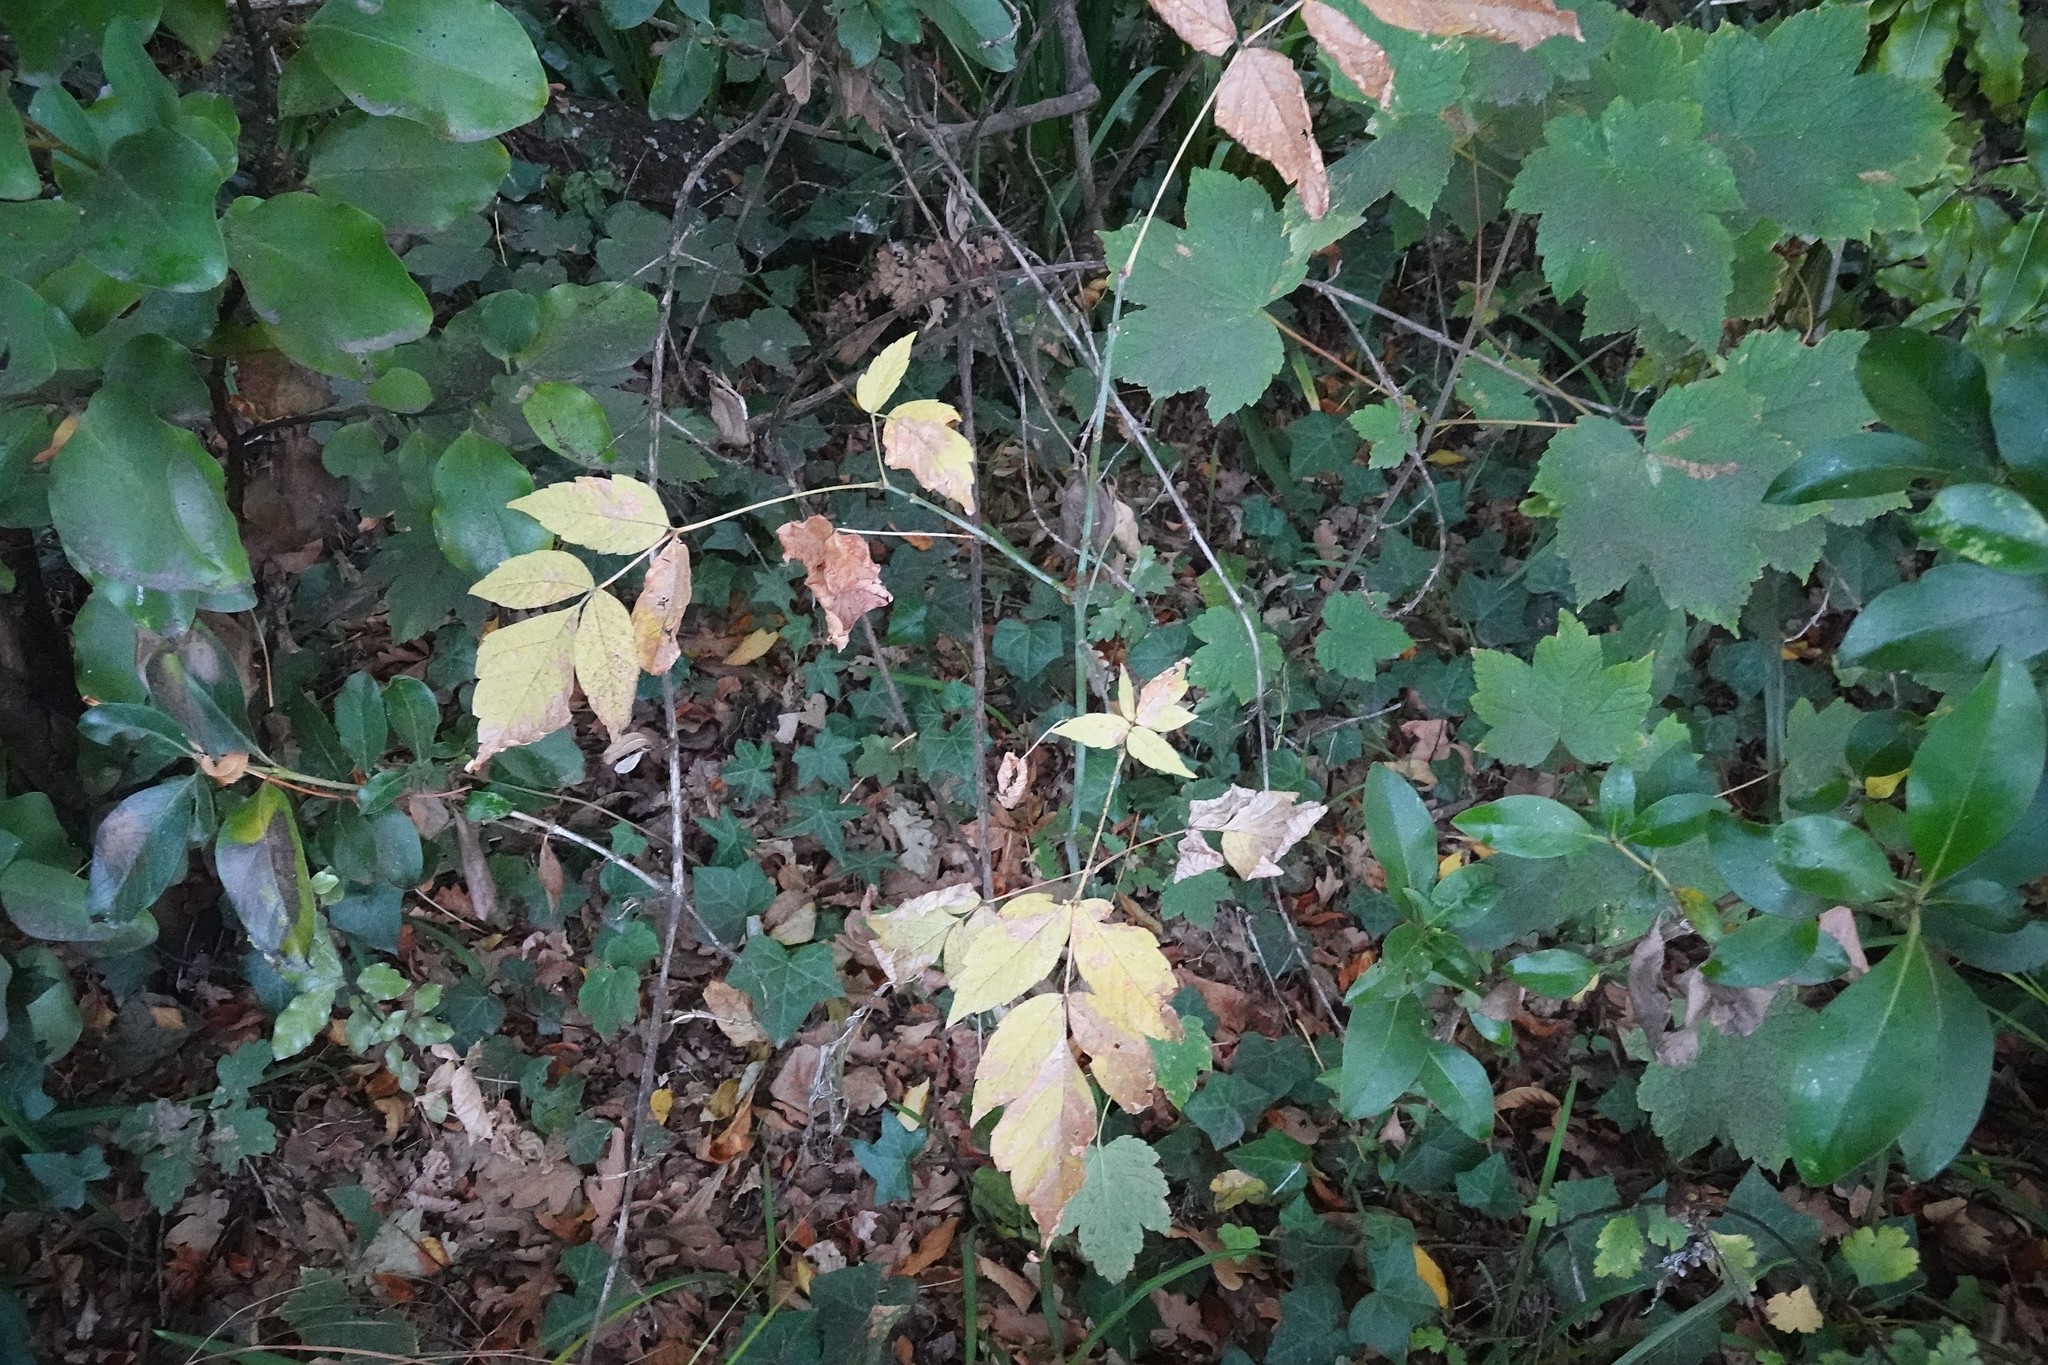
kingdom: Plantae
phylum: Tracheophyta
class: Magnoliopsida
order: Sapindales
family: Sapindaceae
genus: Acer
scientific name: Acer negundo
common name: Ashleaf maple
